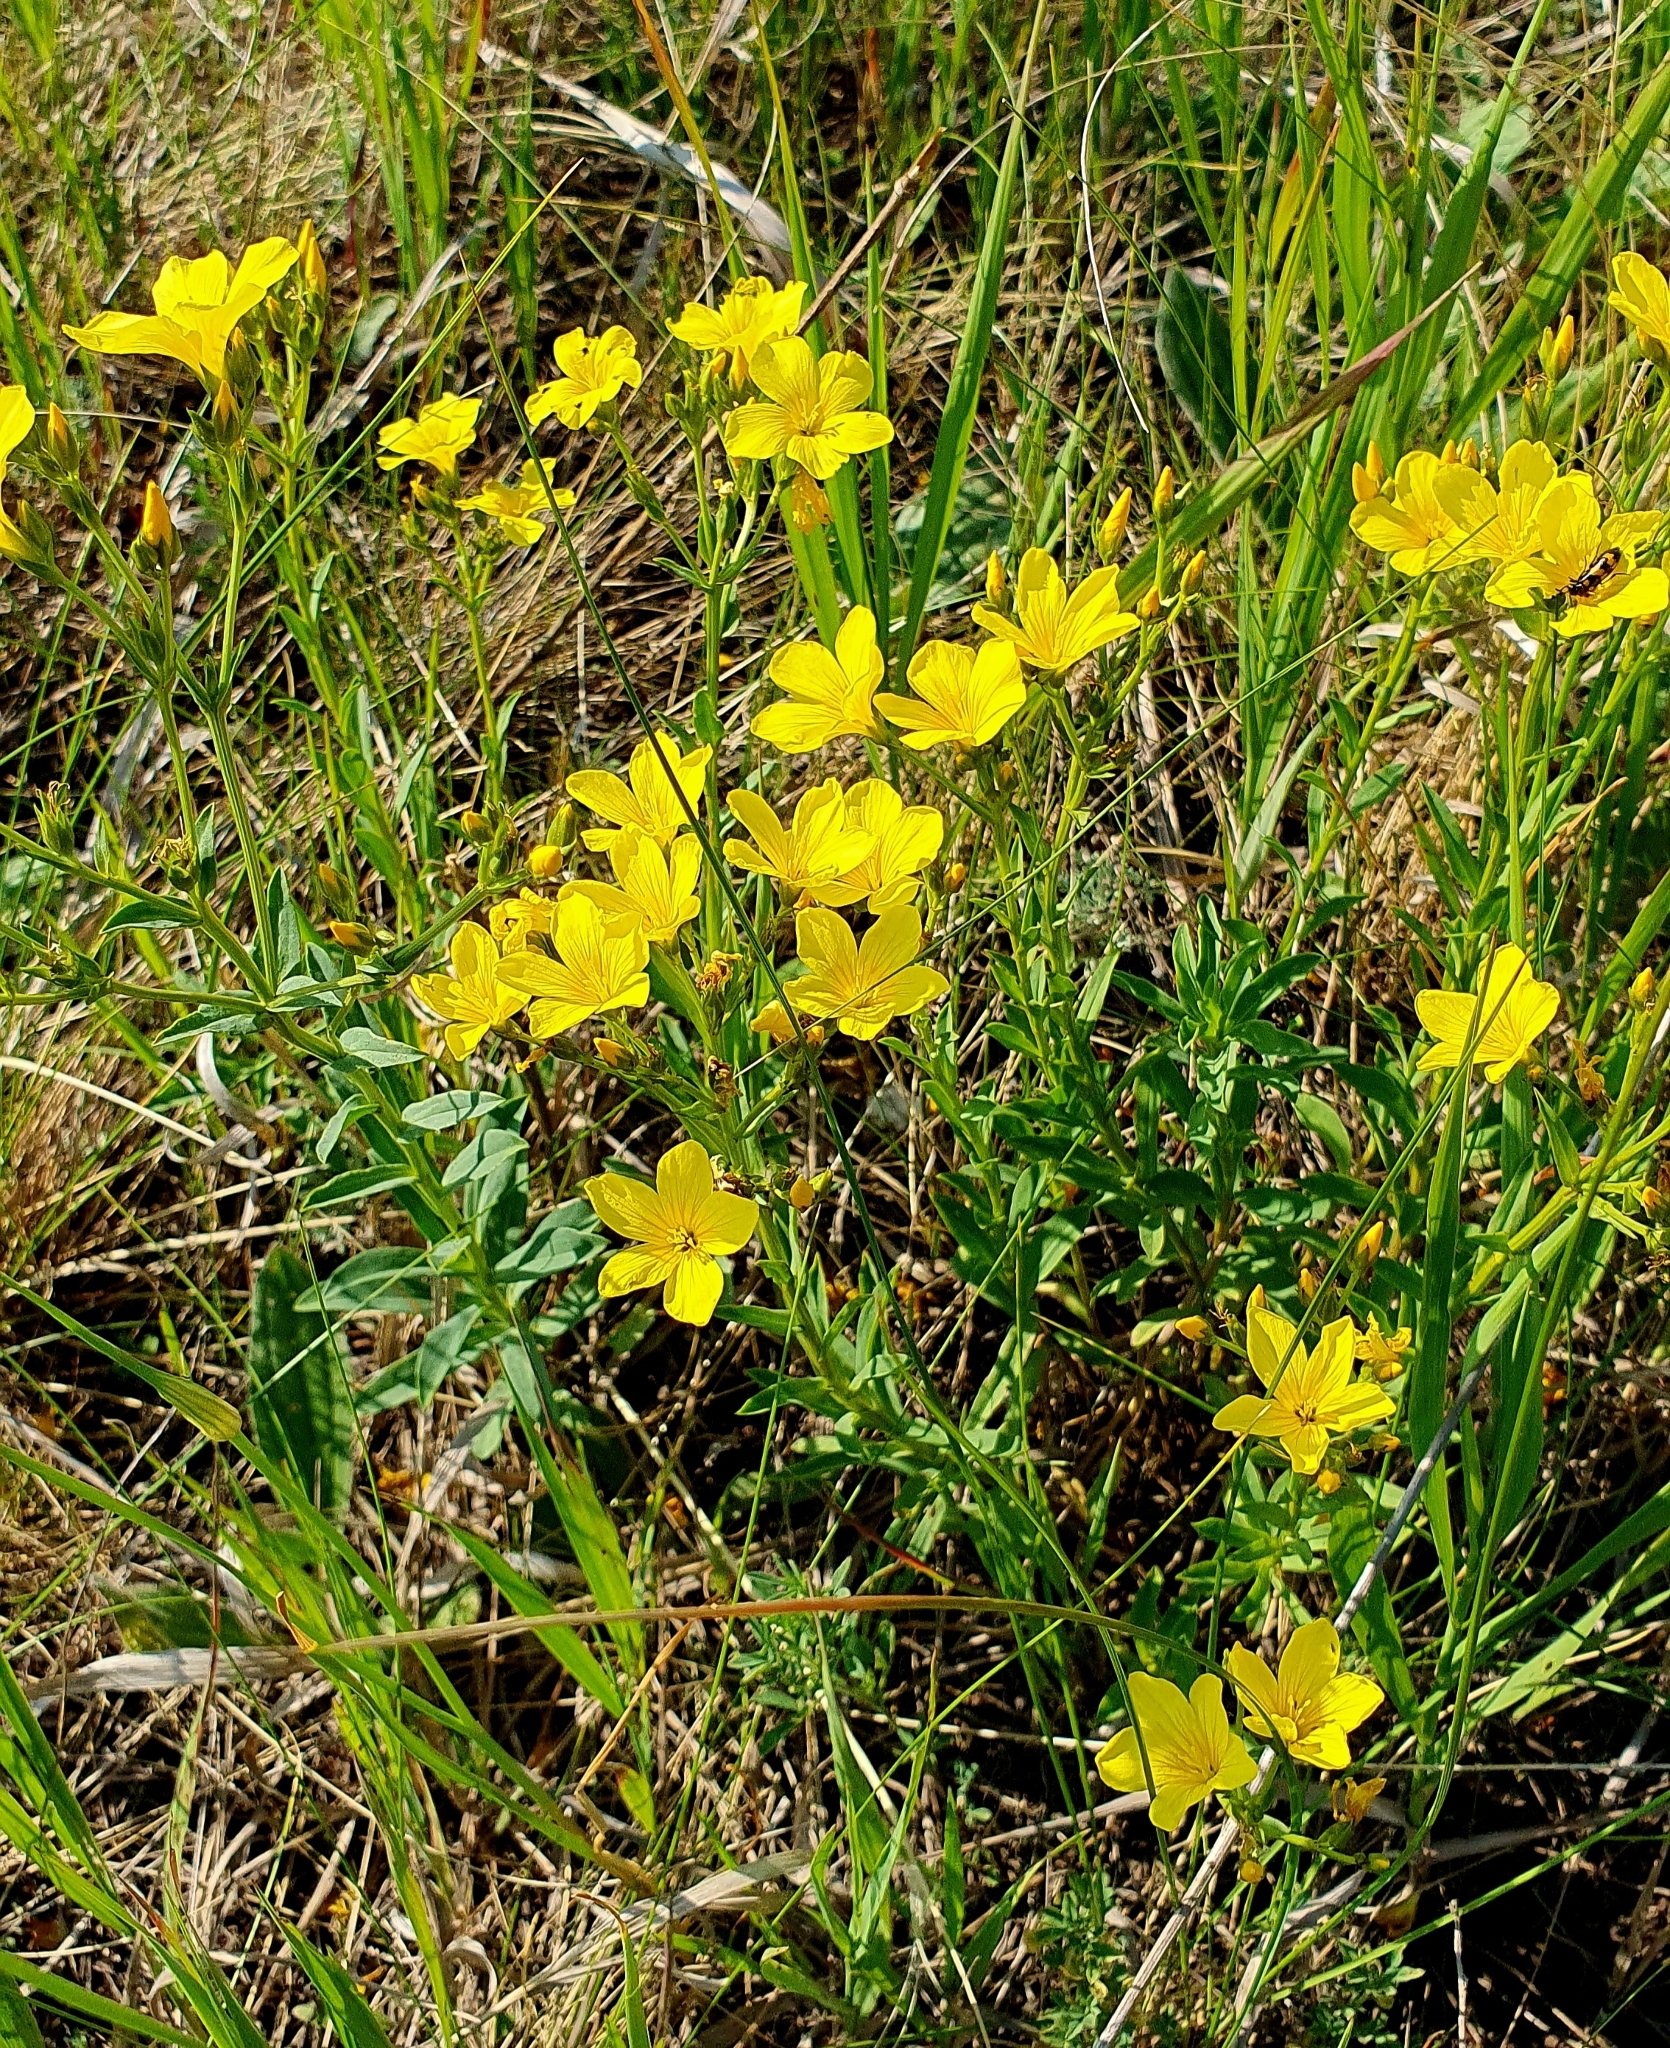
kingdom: Plantae
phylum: Tracheophyta
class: Magnoliopsida
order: Malpighiales
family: Linaceae
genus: Linum
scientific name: Linum flavum
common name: Yellow flax
